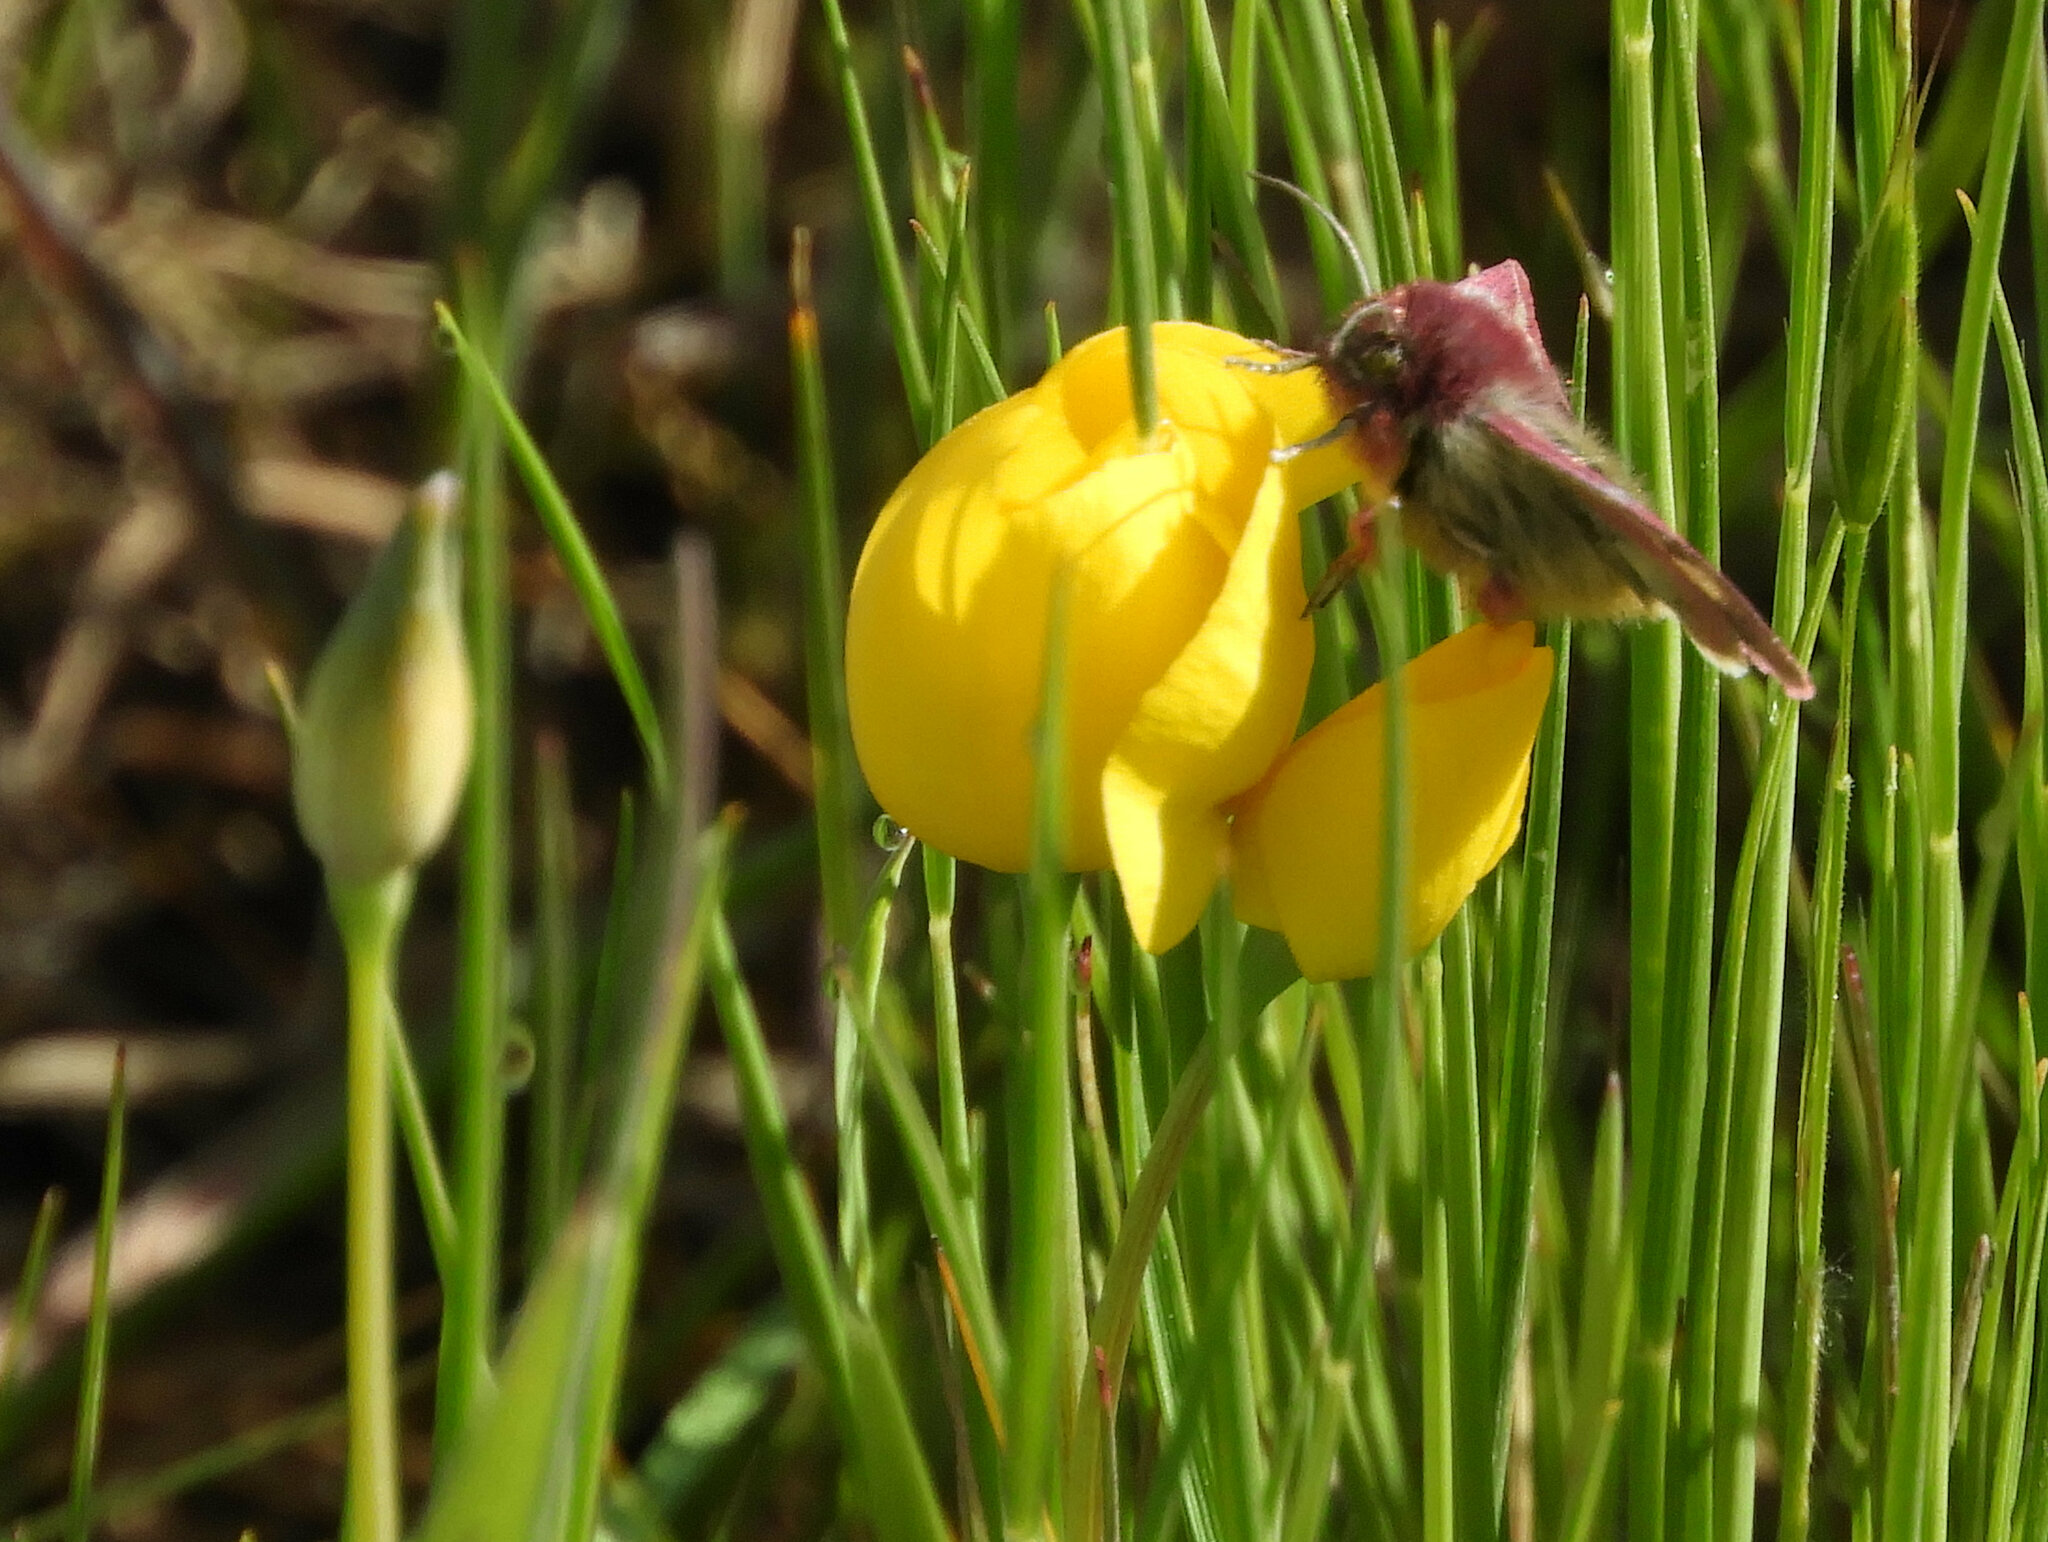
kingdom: Animalia
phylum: Arthropoda
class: Insecta
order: Lepidoptera
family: Noctuidae
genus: Schinia
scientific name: Schinia pulchripennis
